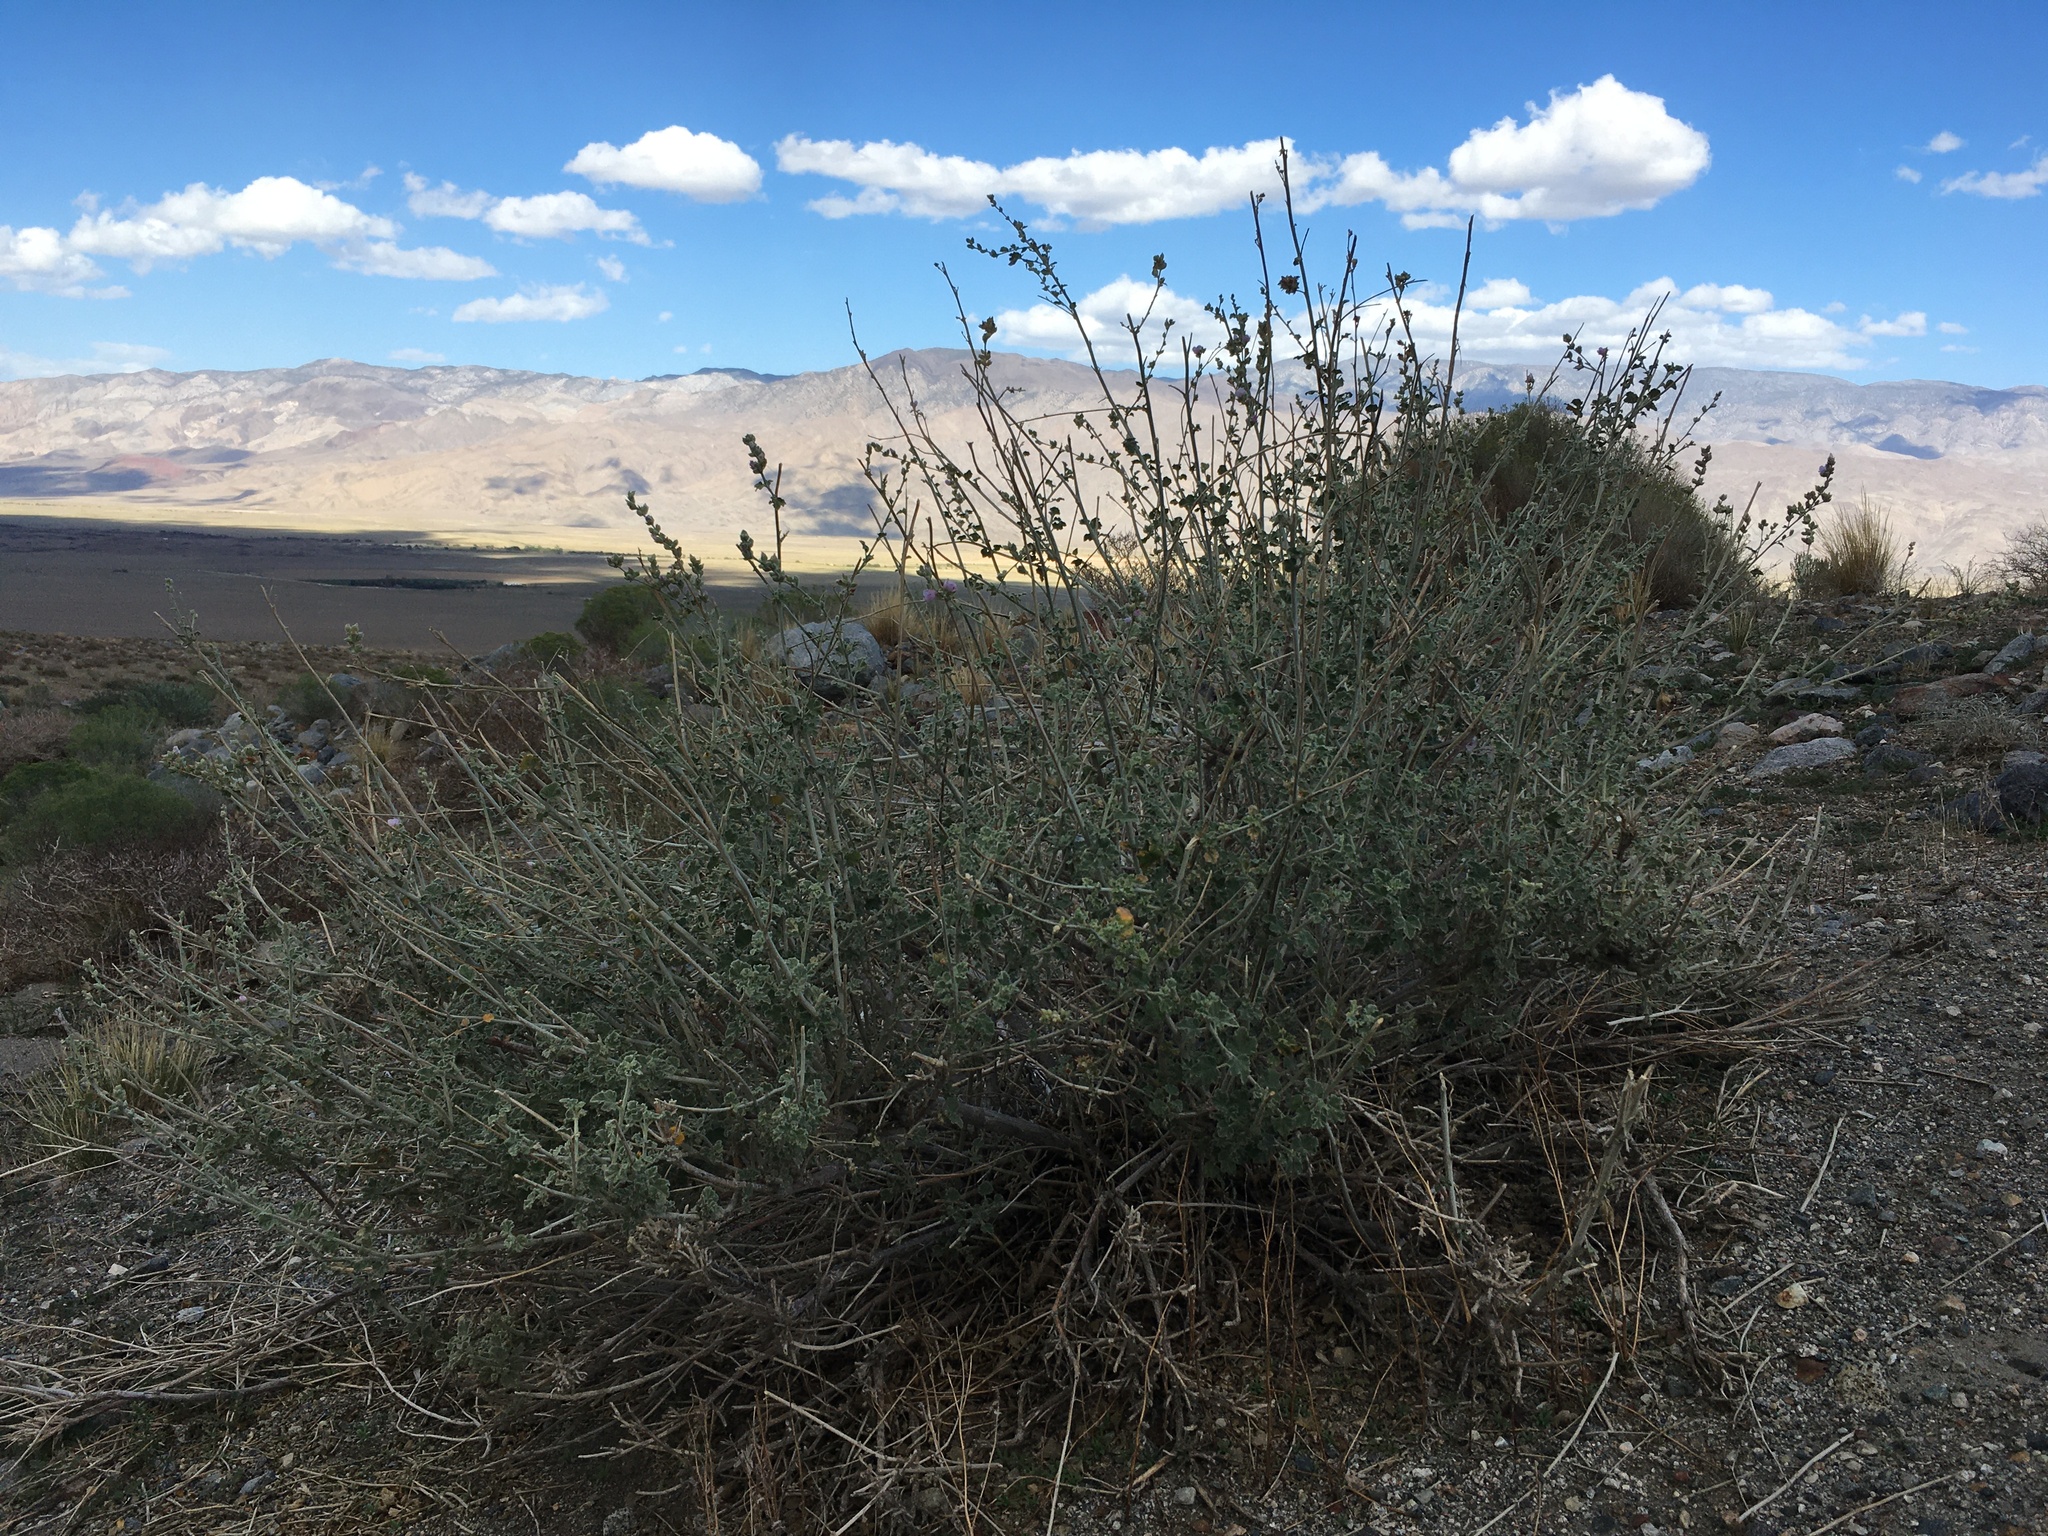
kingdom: Plantae
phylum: Tracheophyta
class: Magnoliopsida
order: Malvales
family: Malvaceae
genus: Malacothamnus
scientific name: Malacothamnus fremontii
